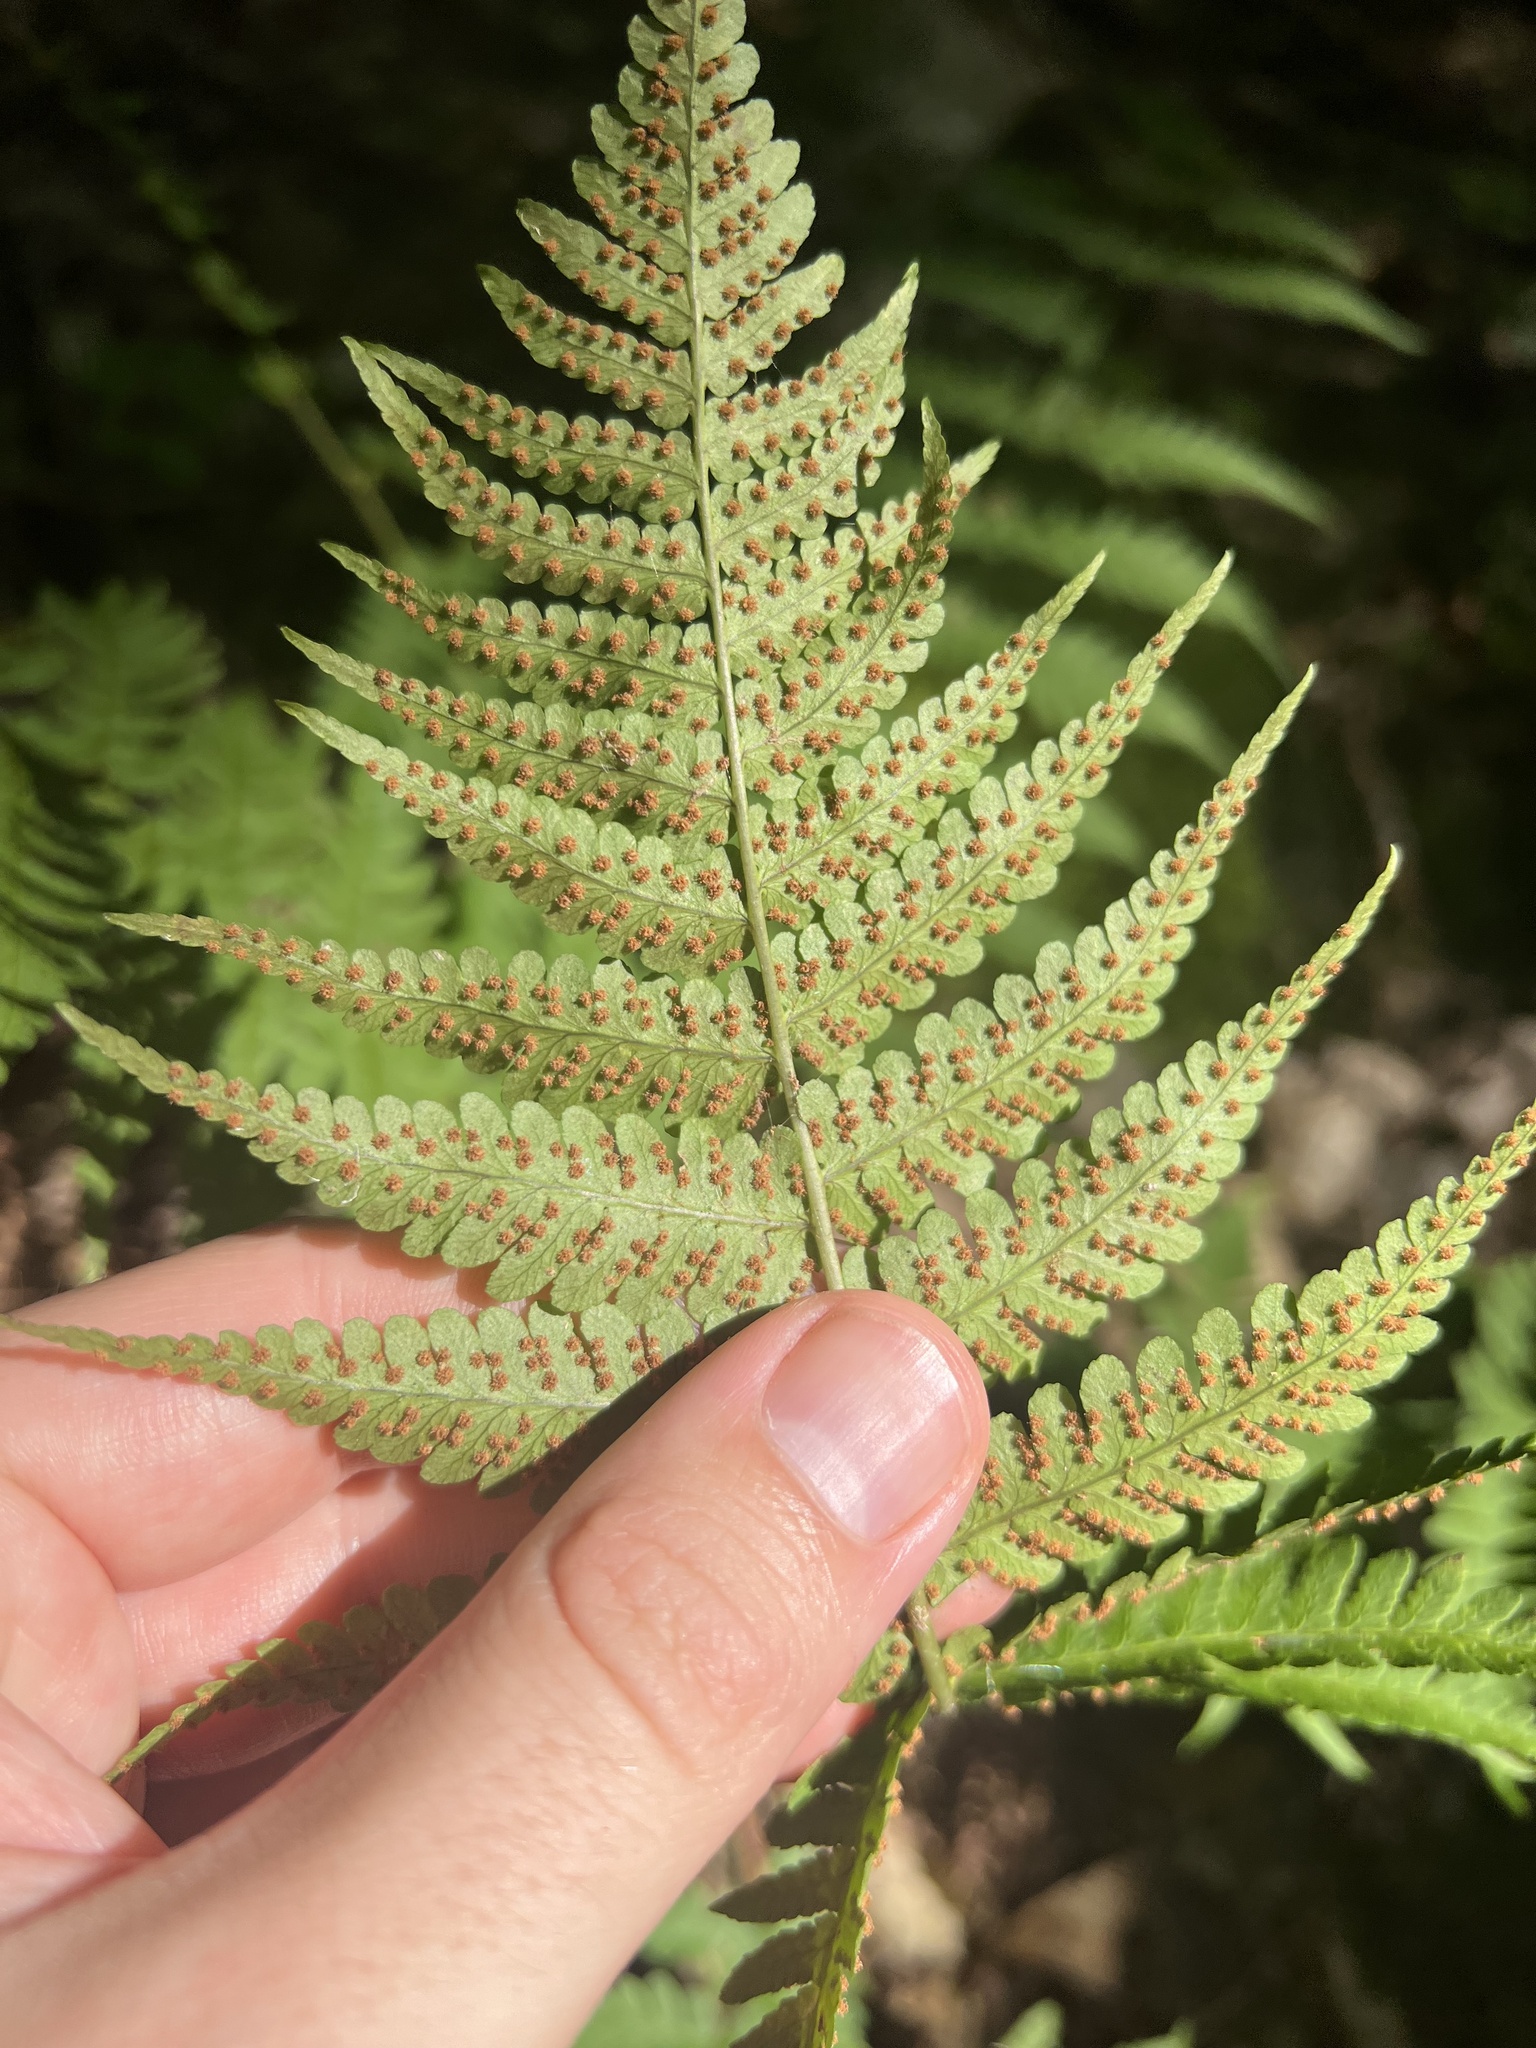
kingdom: Plantae
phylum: Tracheophyta
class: Polypodiopsida
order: Polypodiales
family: Dryopteridaceae
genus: Dryopteris
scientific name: Dryopteris marginalis
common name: Marginal wood fern
